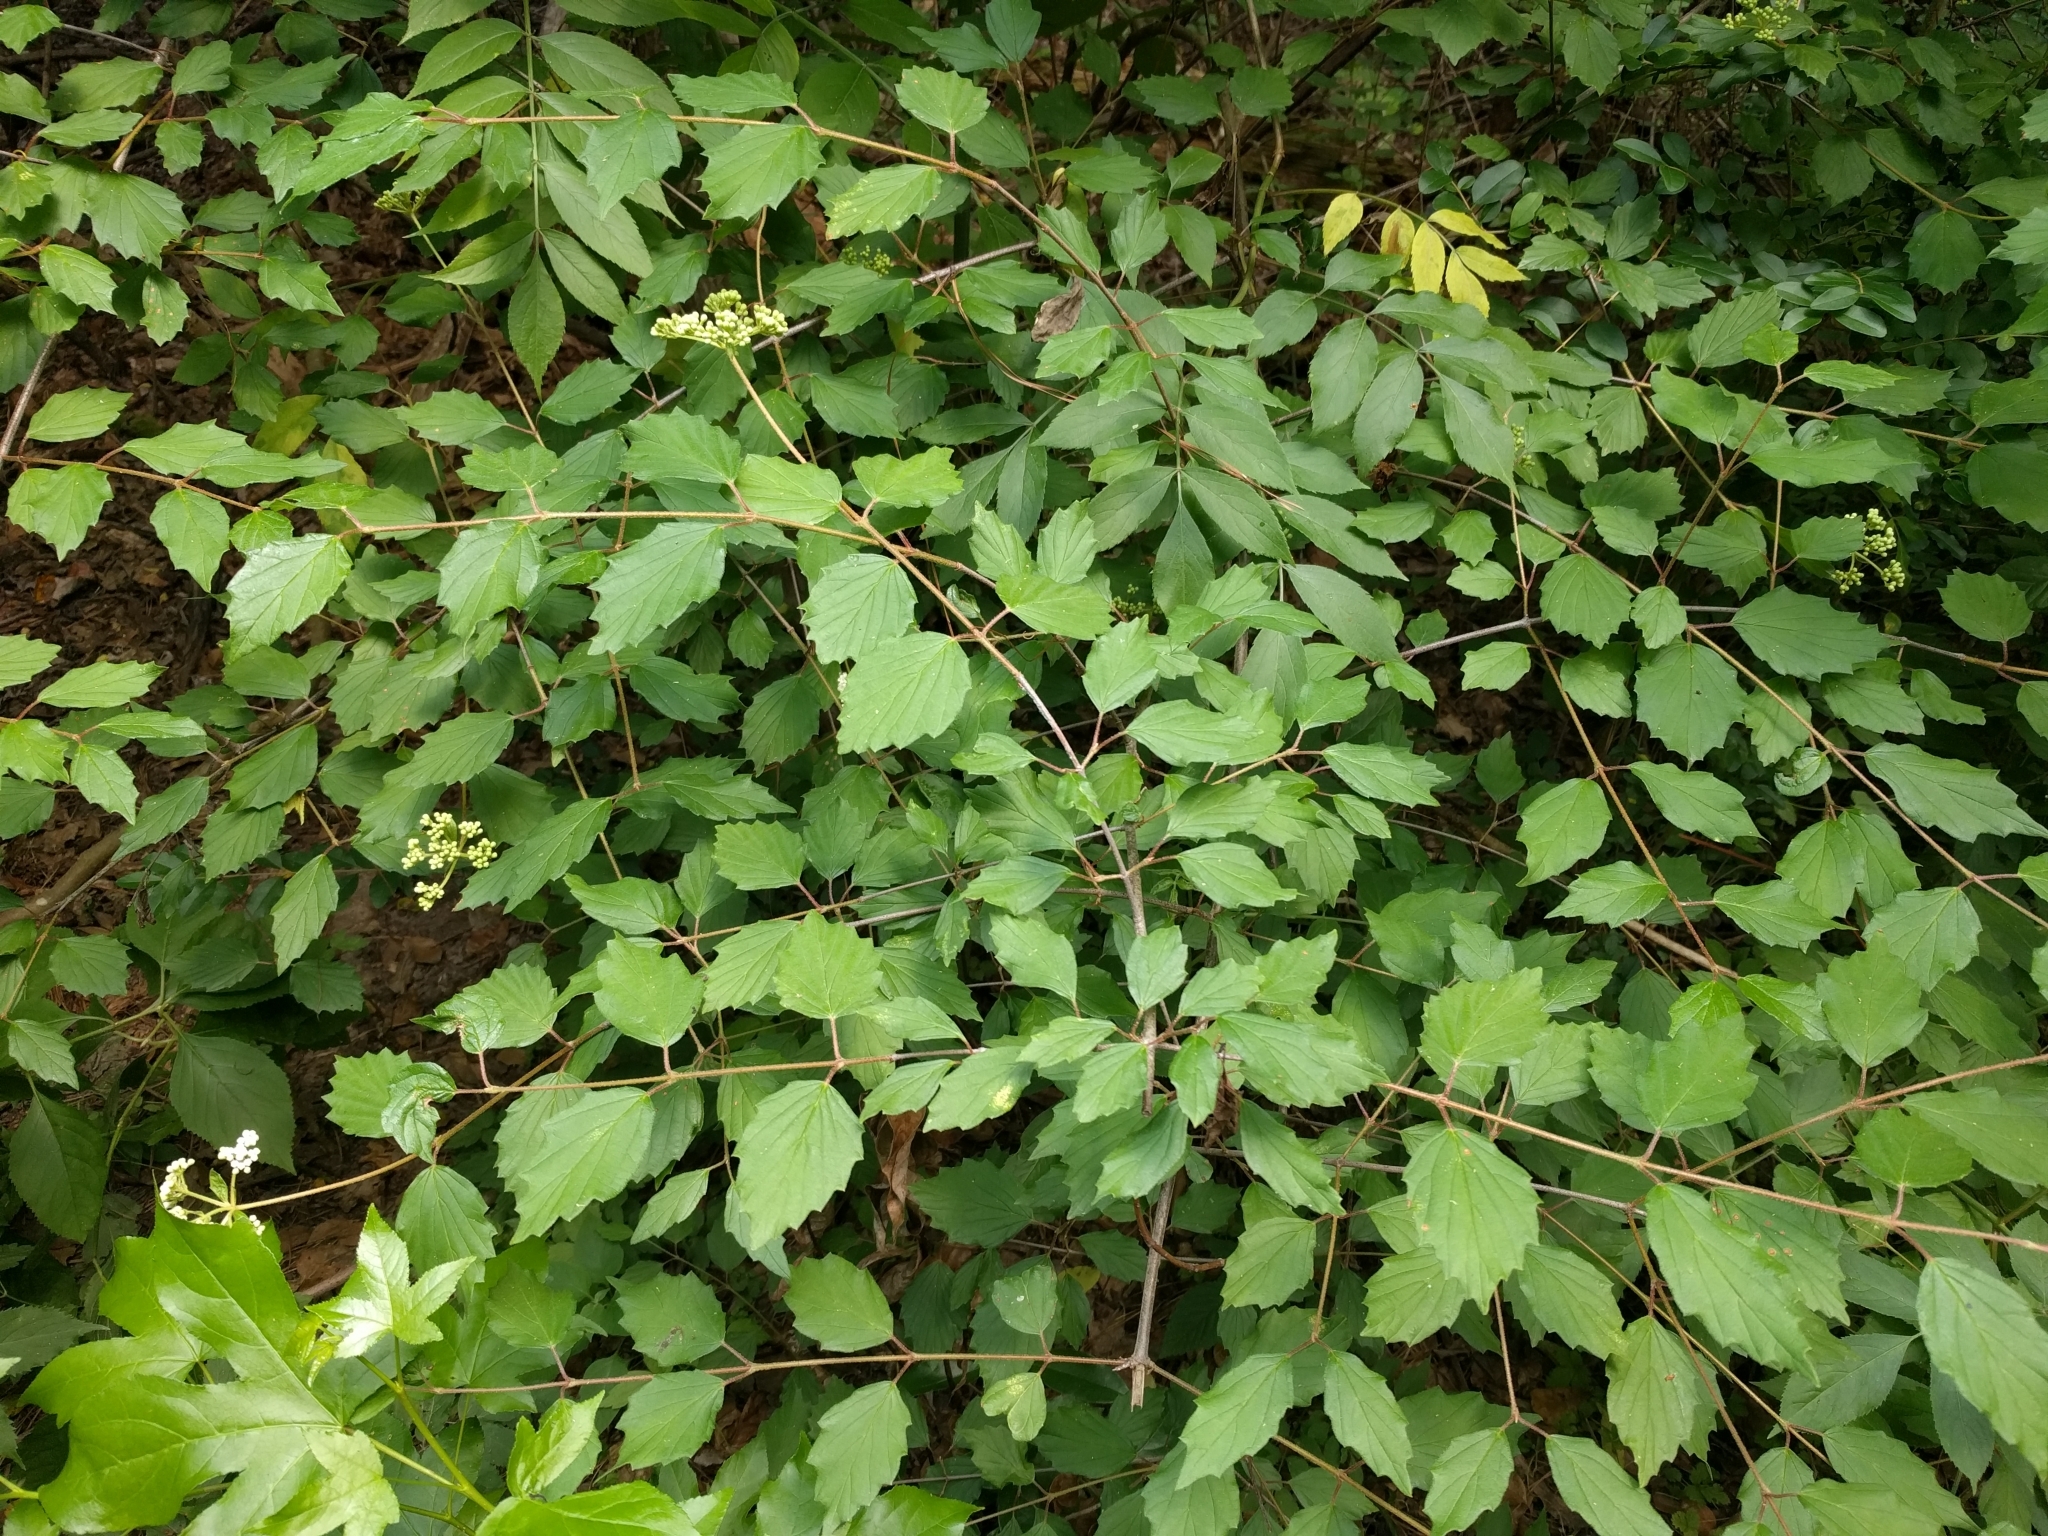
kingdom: Plantae
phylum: Tracheophyta
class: Magnoliopsida
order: Dipsacales
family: Viburnaceae
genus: Viburnum
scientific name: Viburnum scabrellum
